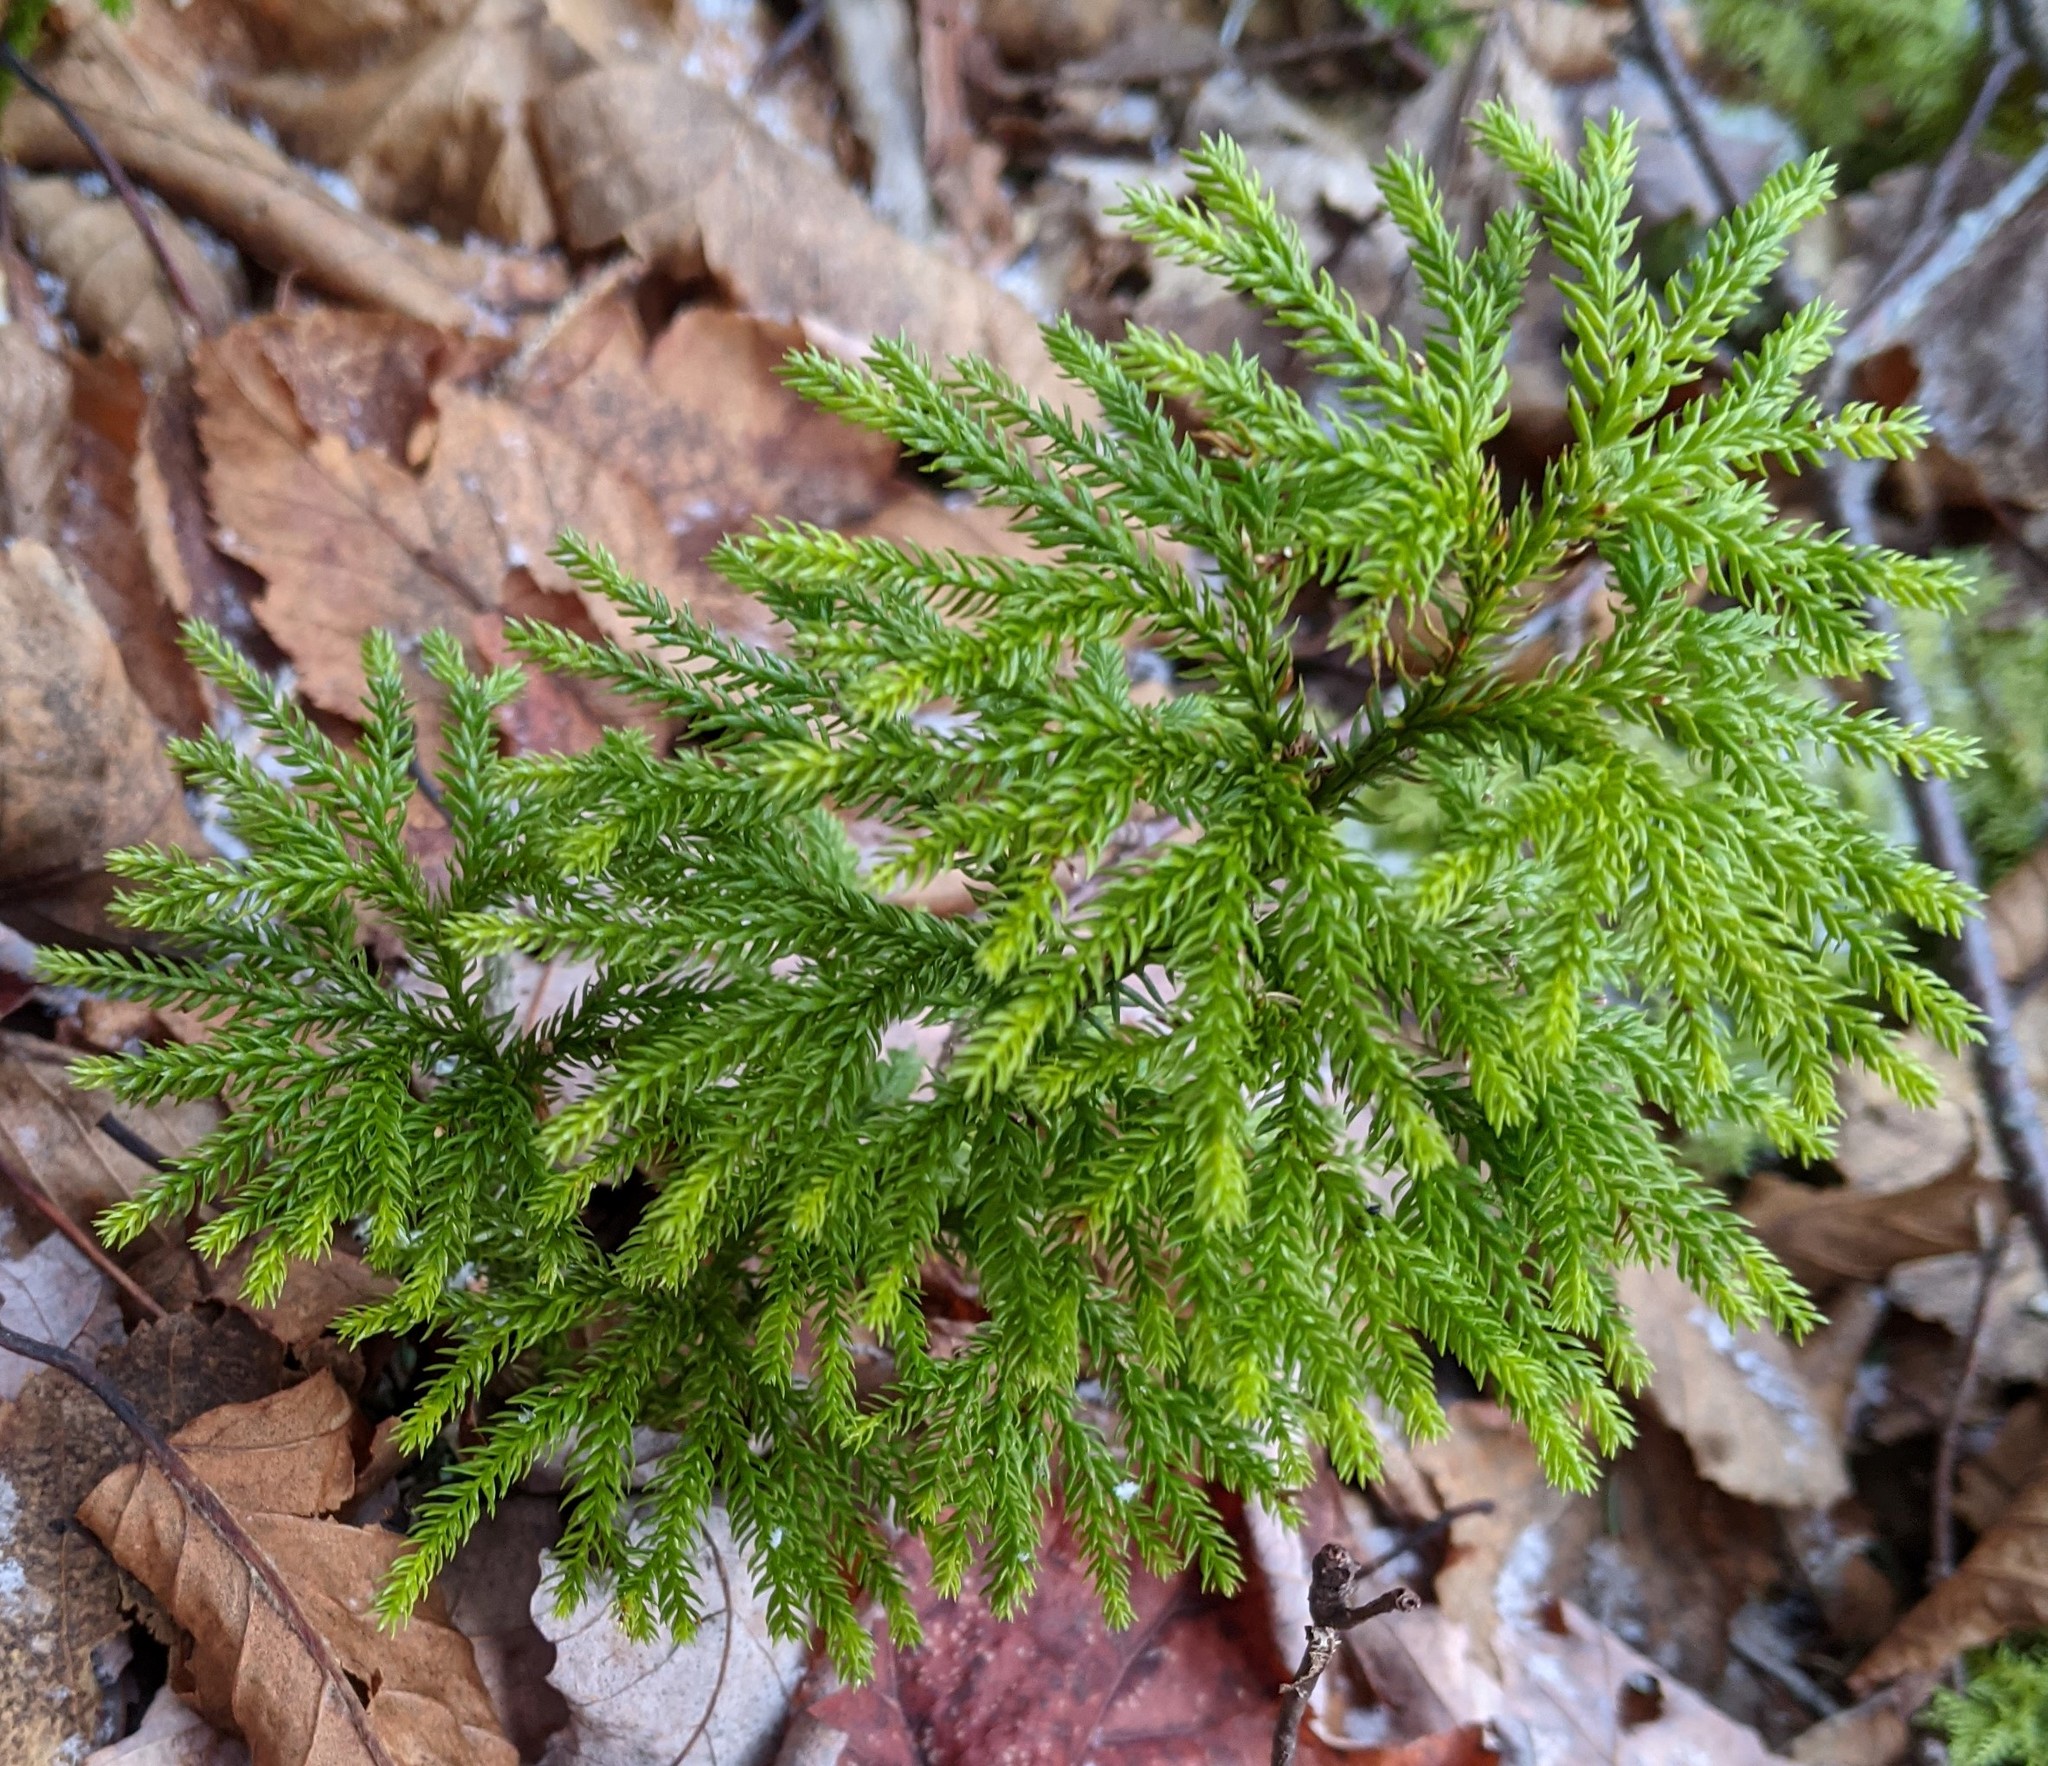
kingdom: Plantae
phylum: Tracheophyta
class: Lycopodiopsida
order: Lycopodiales
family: Lycopodiaceae
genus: Dendrolycopodium
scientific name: Dendrolycopodium dendroideum
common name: Northern tree-clubmoss
